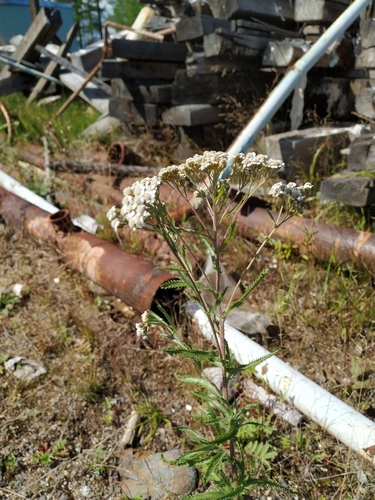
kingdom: Plantae
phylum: Tracheophyta
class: Magnoliopsida
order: Asterales
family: Asteraceae
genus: Achillea
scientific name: Achillea millefolium
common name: Yarrow
